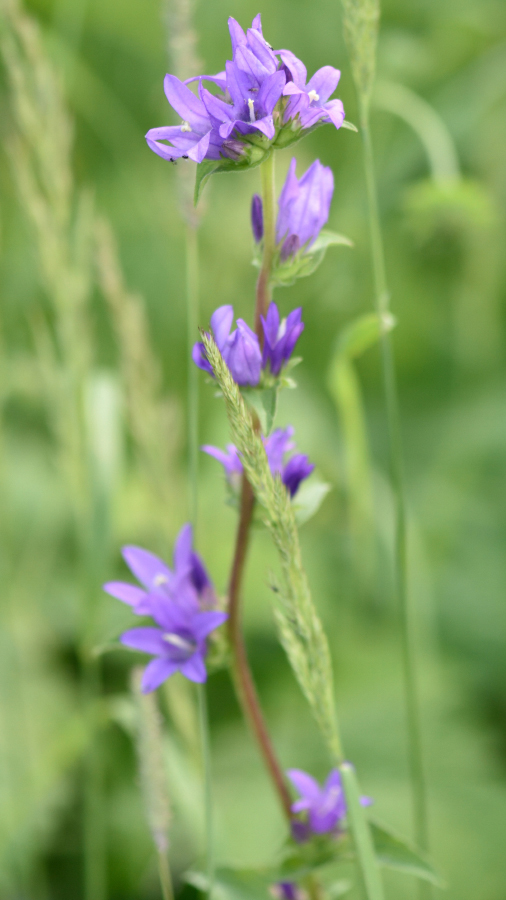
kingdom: Plantae
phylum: Tracheophyta
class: Magnoliopsida
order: Asterales
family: Campanulaceae
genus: Campanula
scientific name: Campanula glomerata
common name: Clustered bellflower
